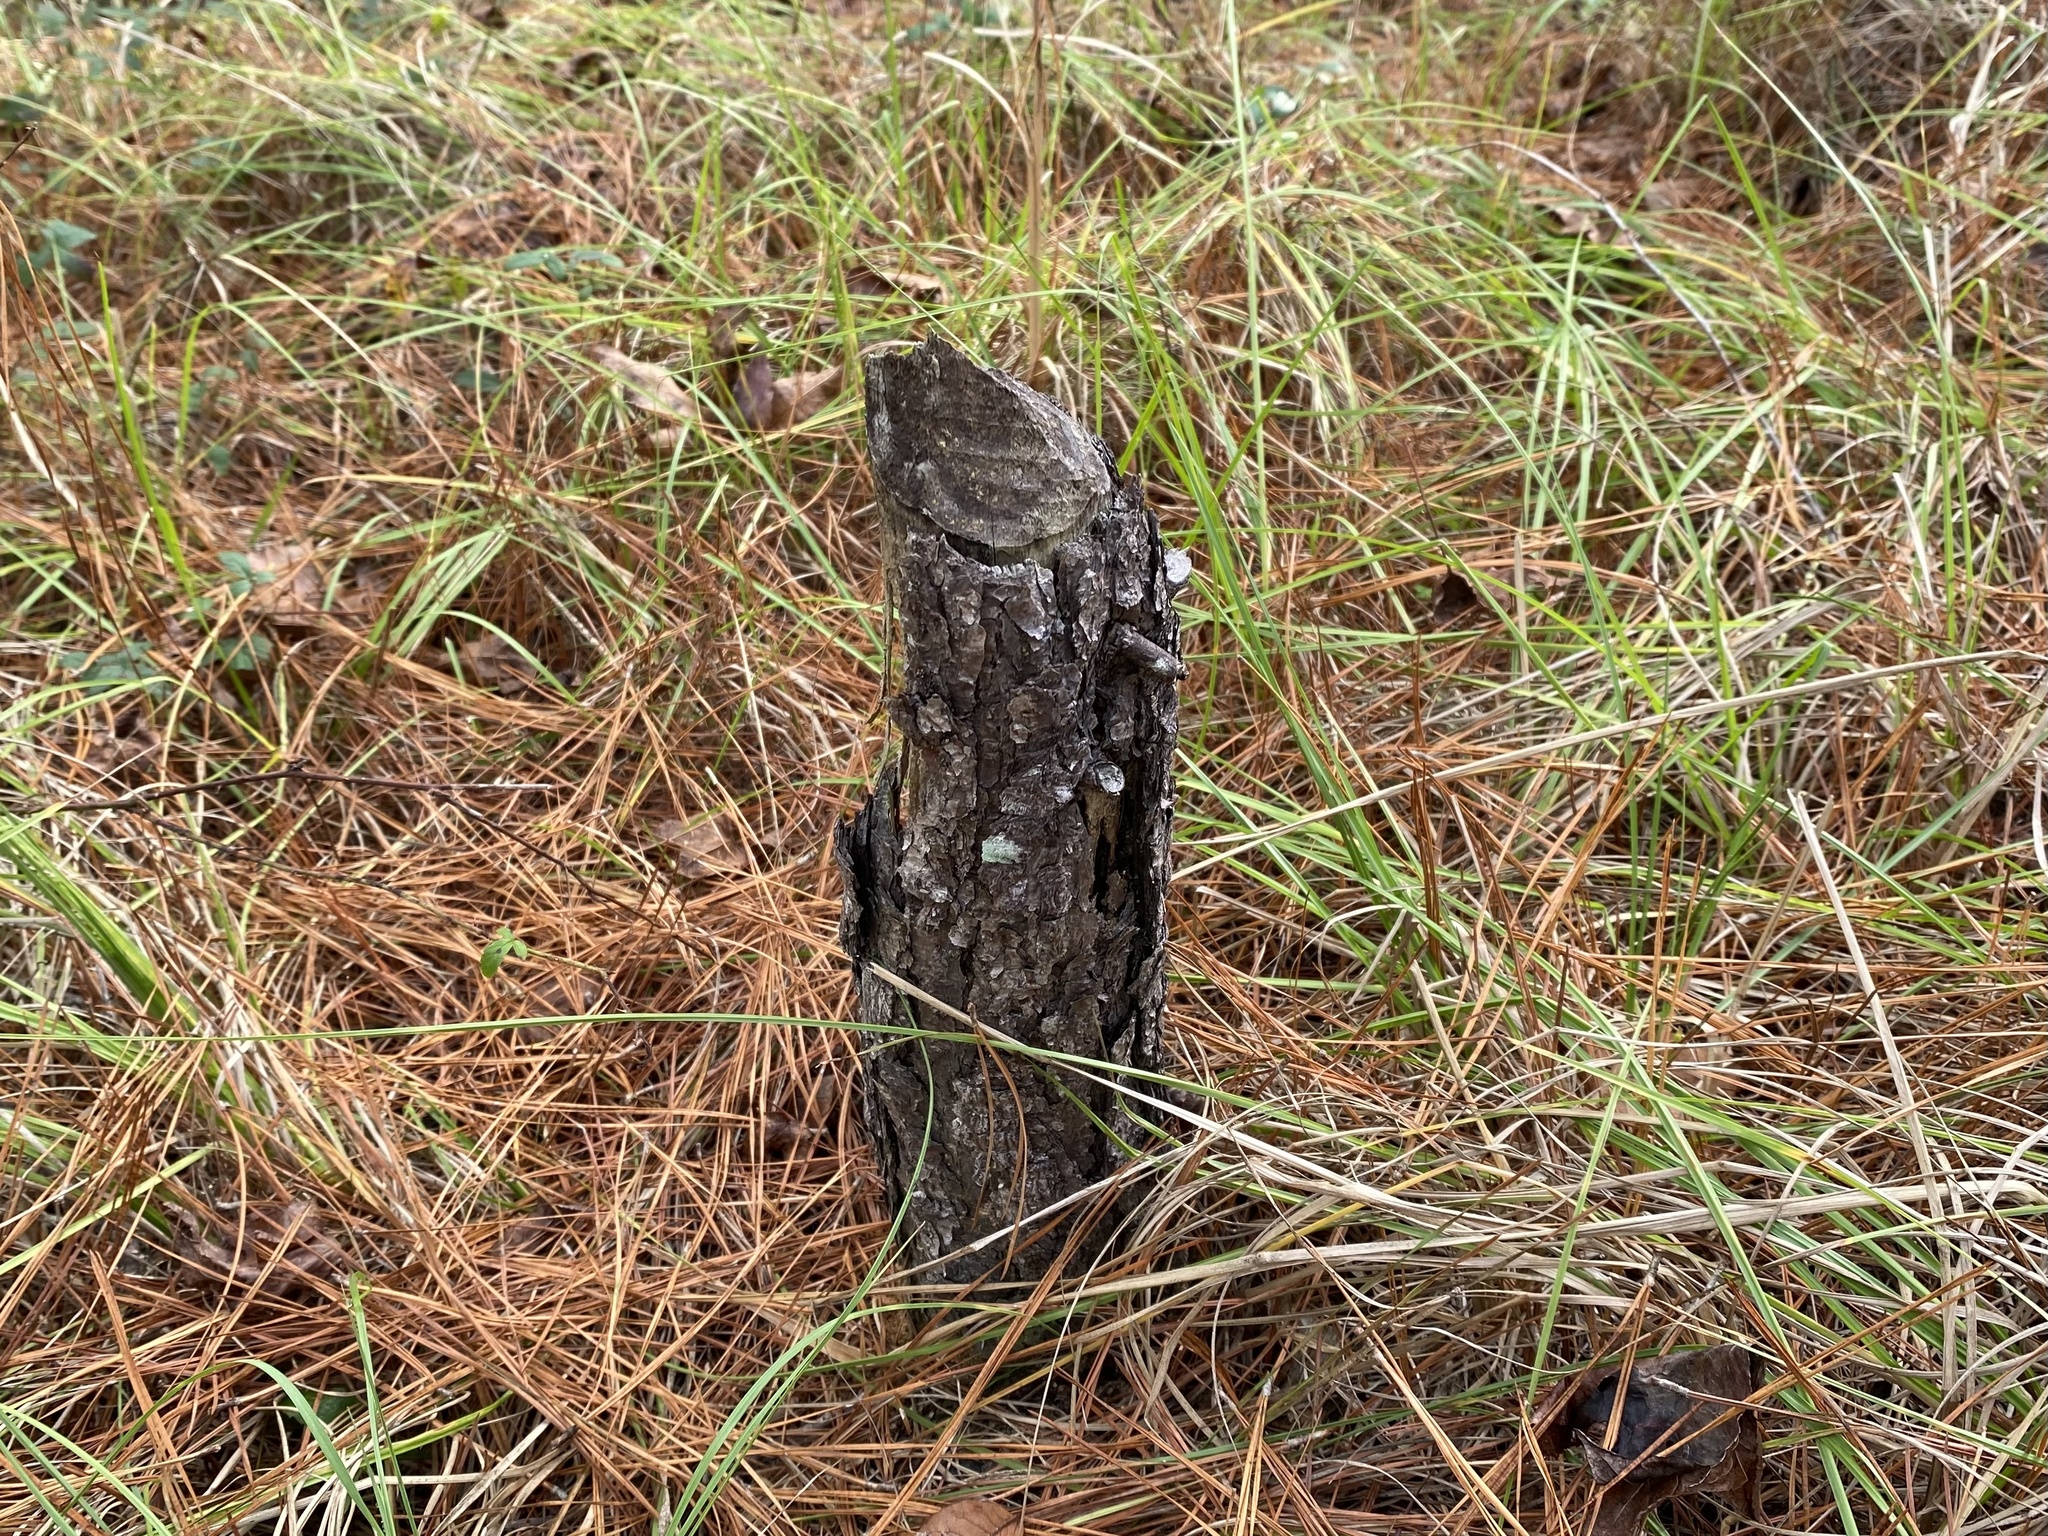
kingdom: Animalia
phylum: Chordata
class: Mammalia
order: Rodentia
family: Castoridae
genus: Castor
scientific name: Castor canadensis
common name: American beaver
